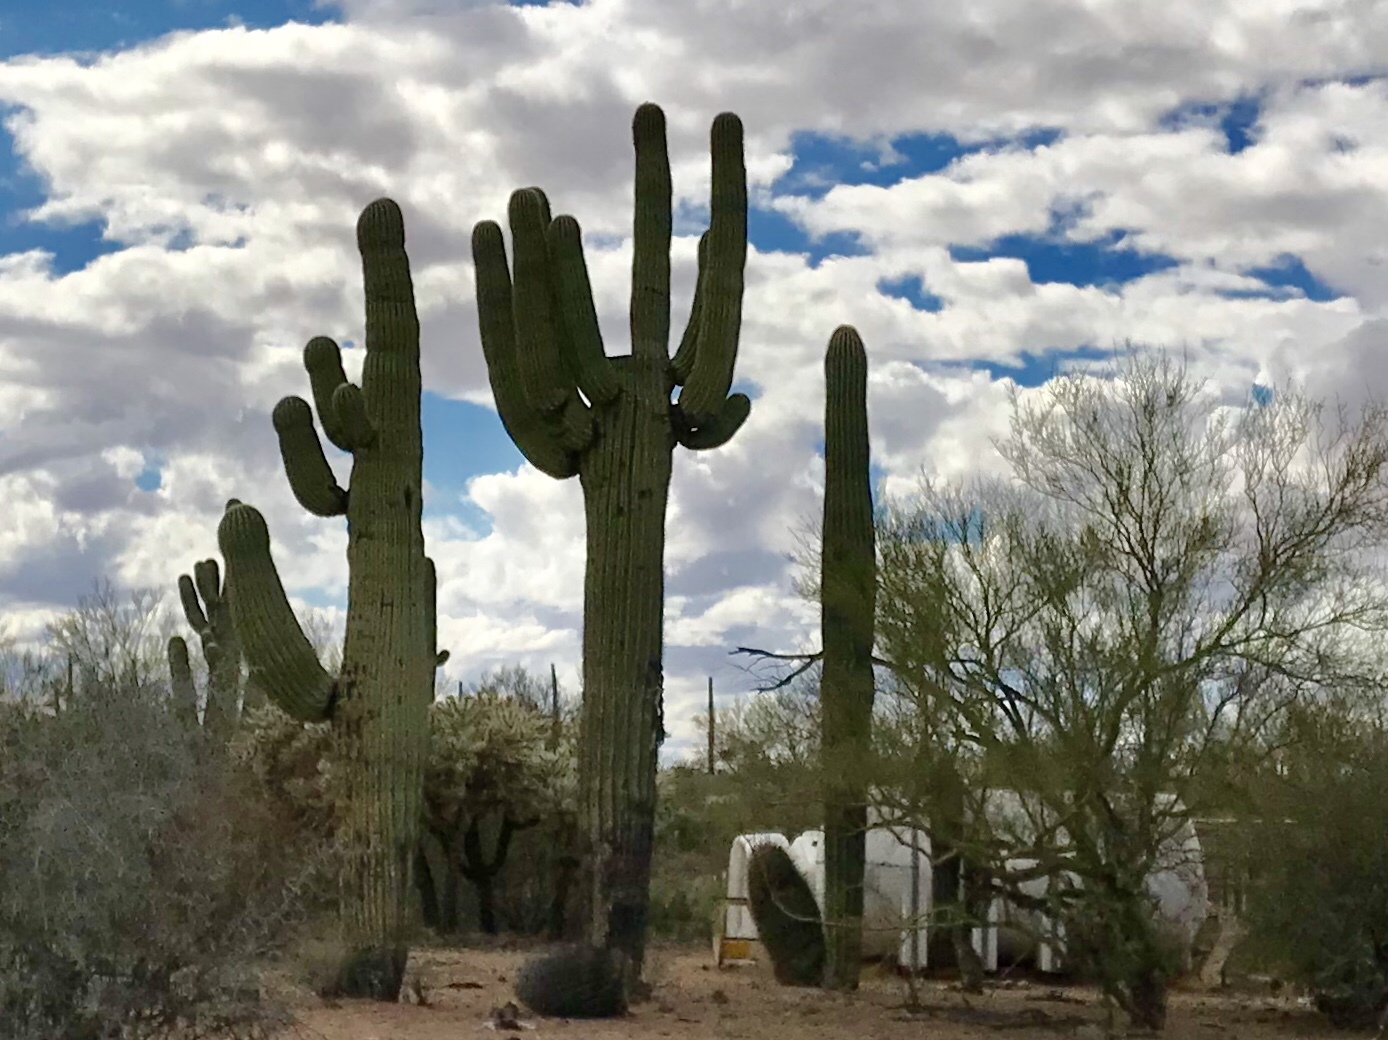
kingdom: Plantae
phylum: Tracheophyta
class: Magnoliopsida
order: Caryophyllales
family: Cactaceae
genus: Carnegiea
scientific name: Carnegiea gigantea
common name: Saguaro
